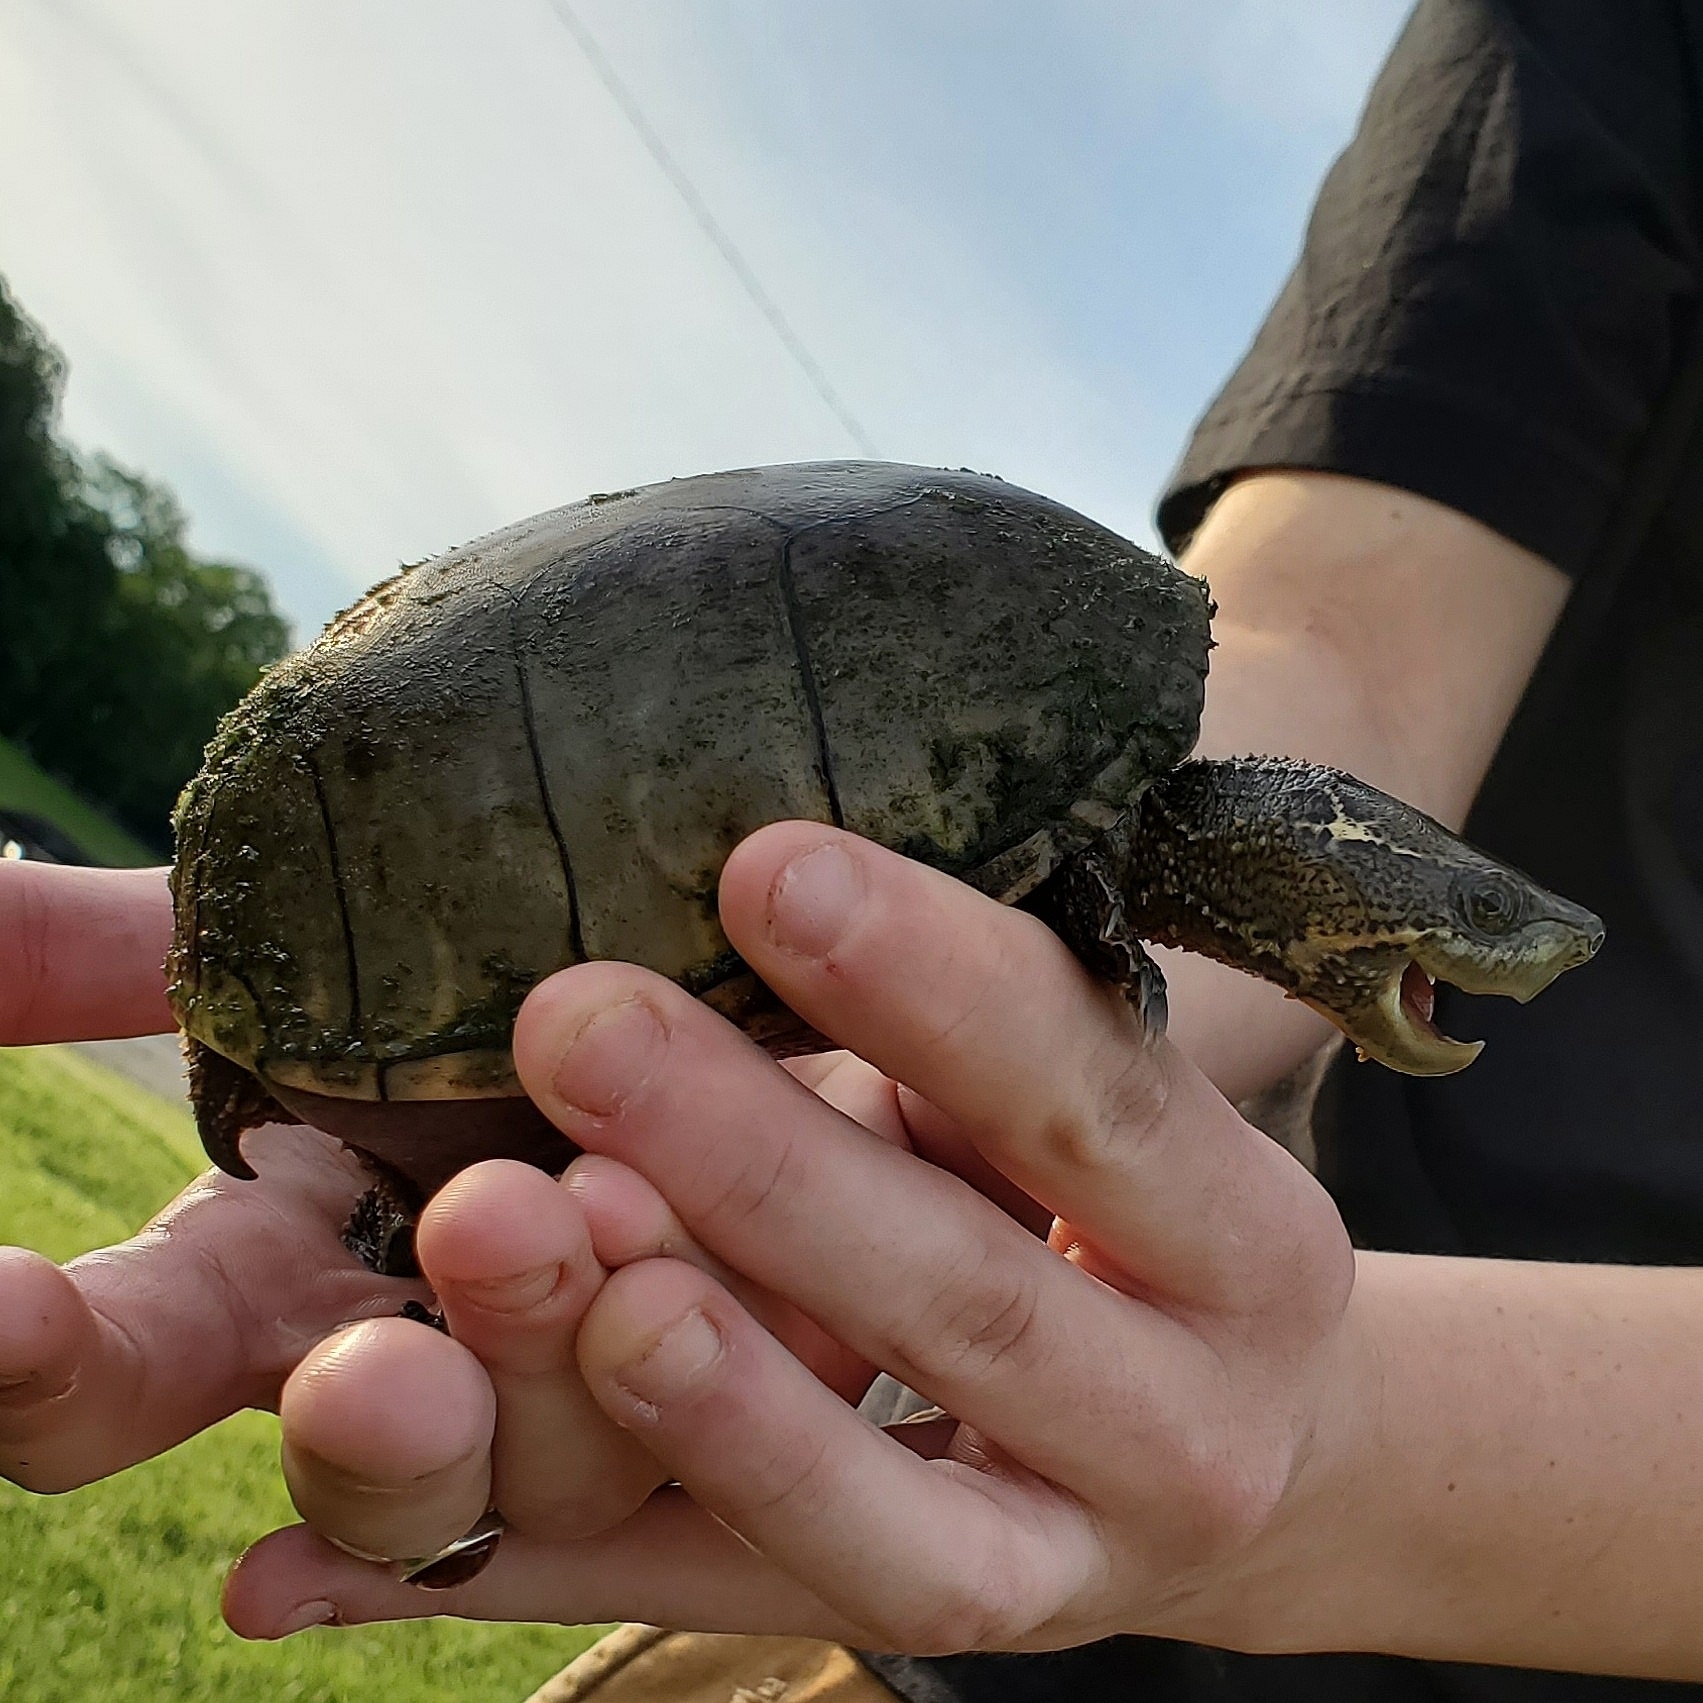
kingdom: Animalia
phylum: Chordata
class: Testudines
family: Kinosternidae
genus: Sternotherus
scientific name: Sternotherus odoratus
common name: Common musk turtle
